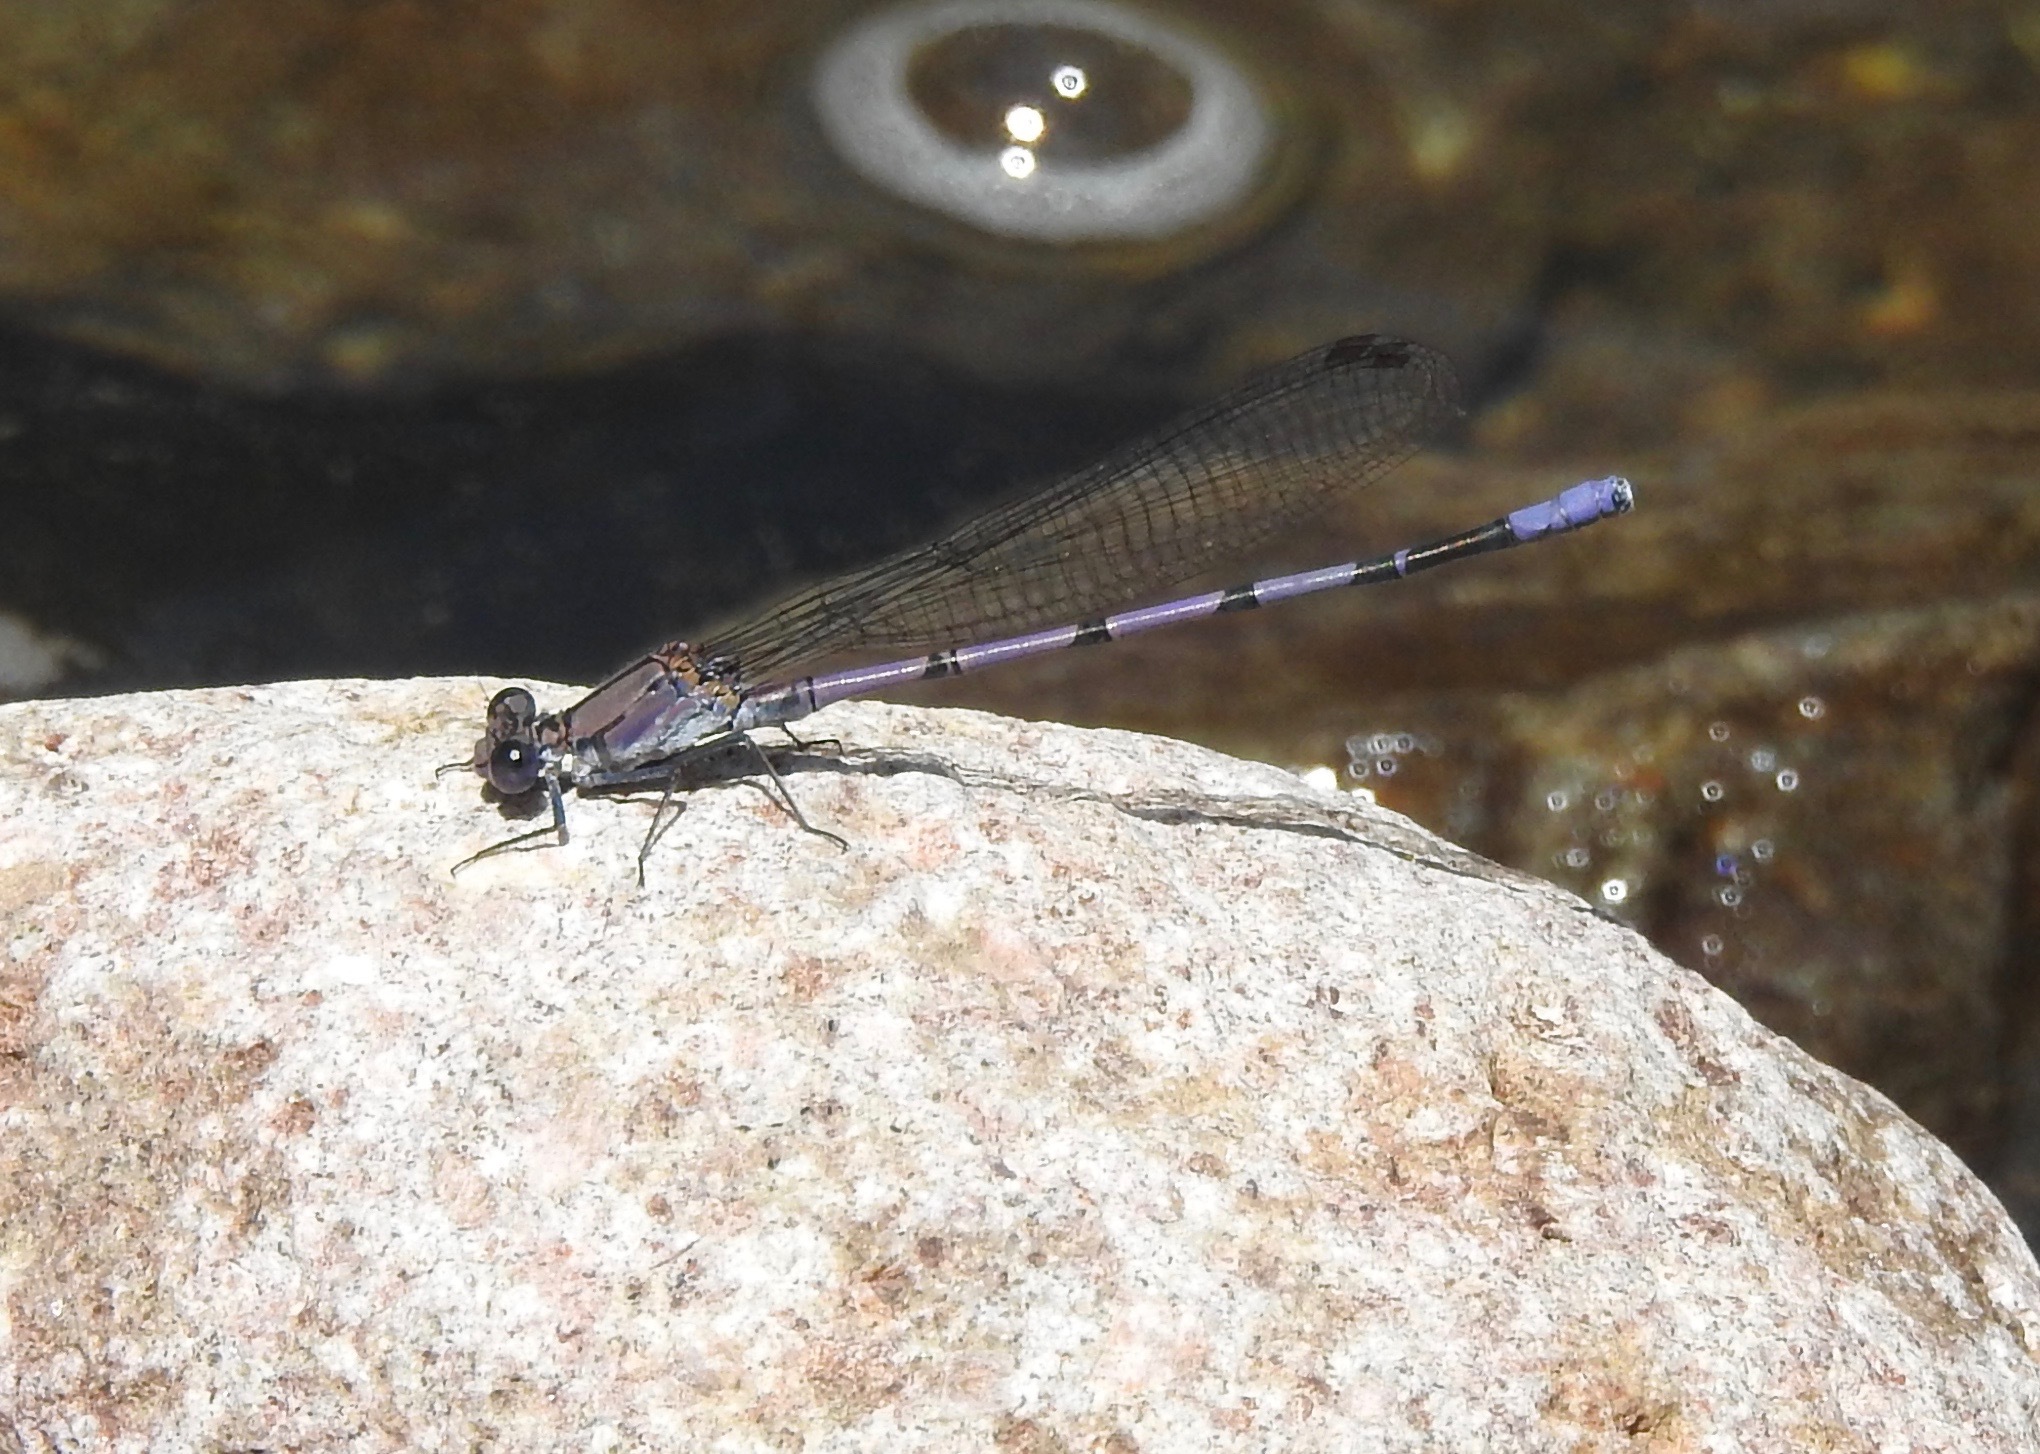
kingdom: Animalia
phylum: Arthropoda
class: Insecta
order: Odonata
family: Coenagrionidae
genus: Argia
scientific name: Argia tonto
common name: Tonto dancer
